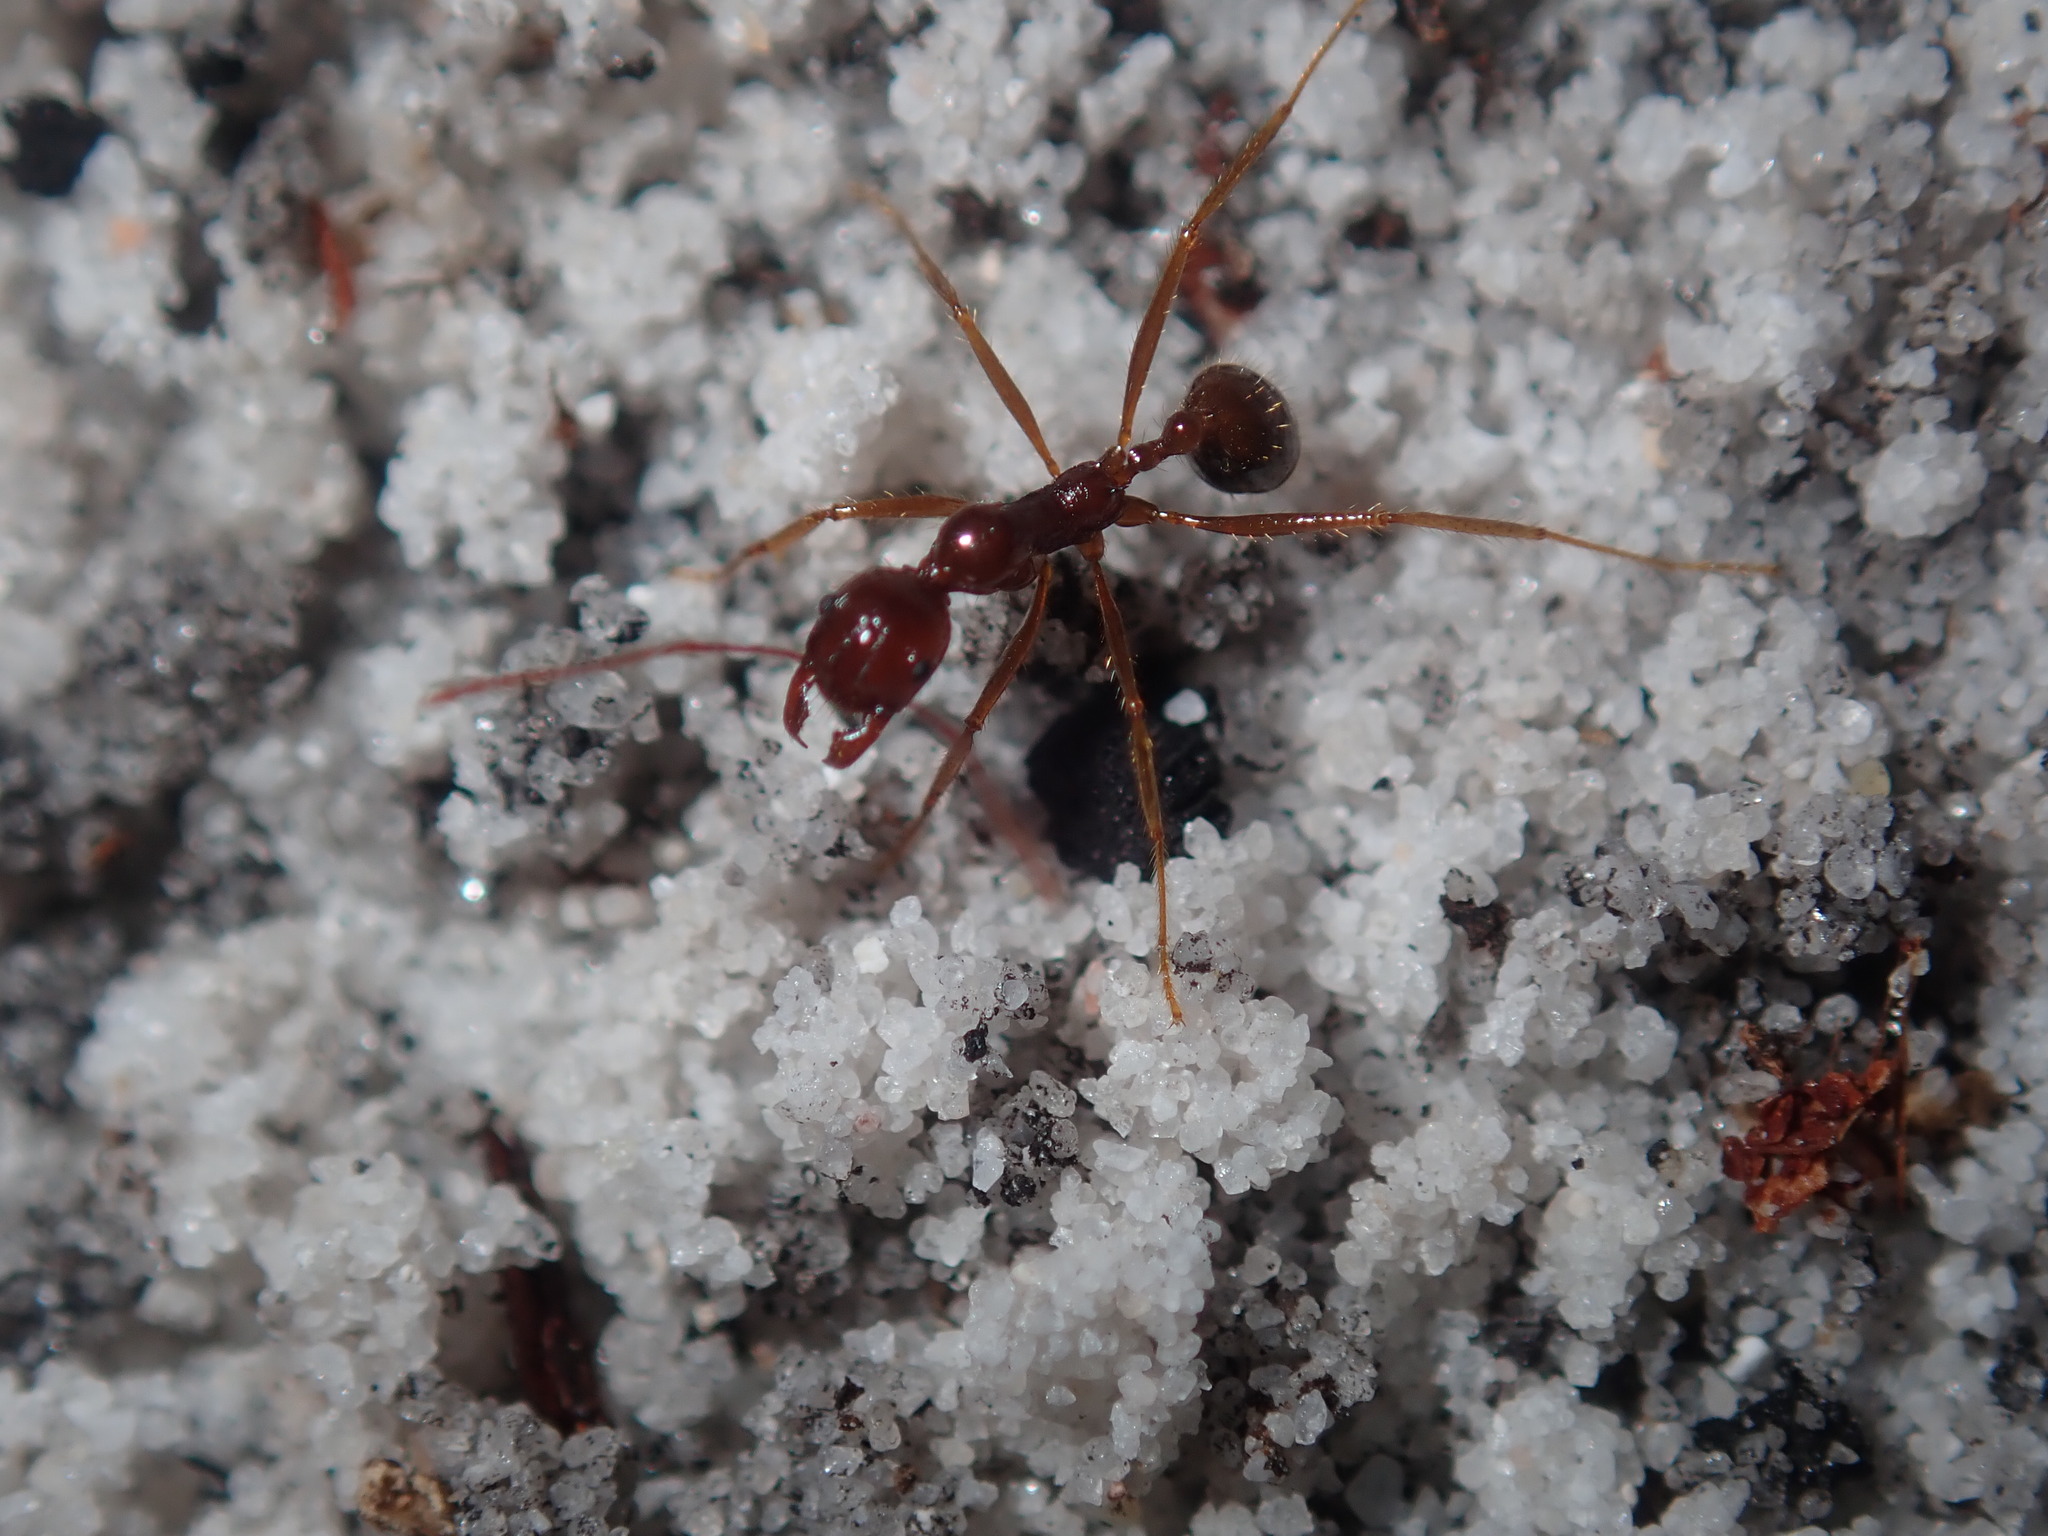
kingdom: Animalia
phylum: Arthropoda
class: Insecta
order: Hymenoptera
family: Formicidae
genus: Aphaenogaster
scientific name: Aphaenogaster longiceps
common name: Funnel ant
